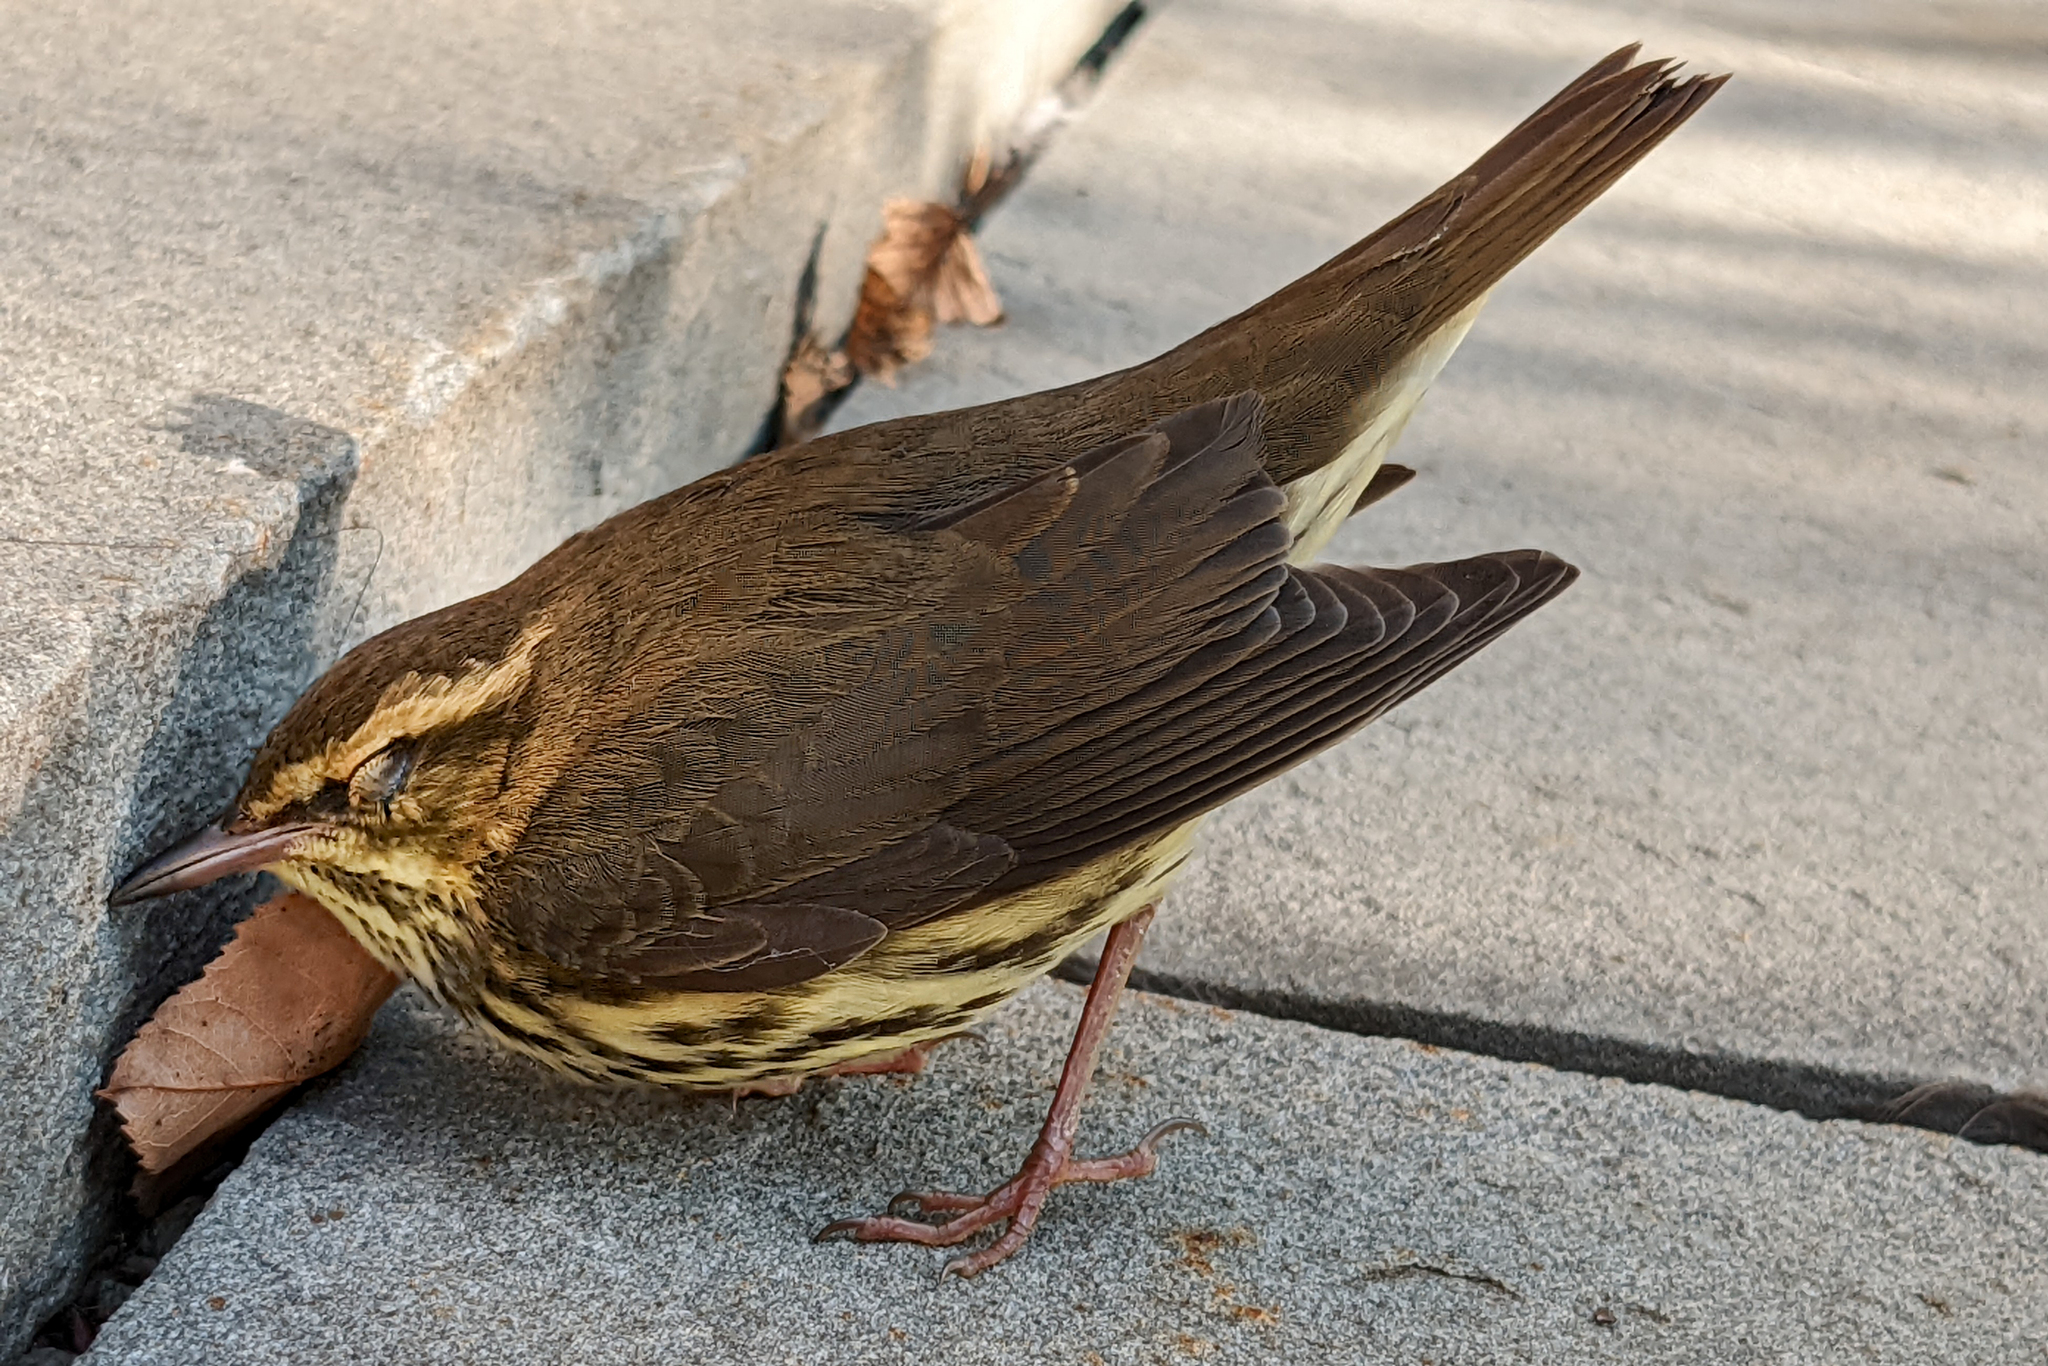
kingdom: Animalia
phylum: Chordata
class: Aves
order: Passeriformes
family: Parulidae
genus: Parkesia
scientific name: Parkesia noveboracensis
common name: Northern waterthrush
